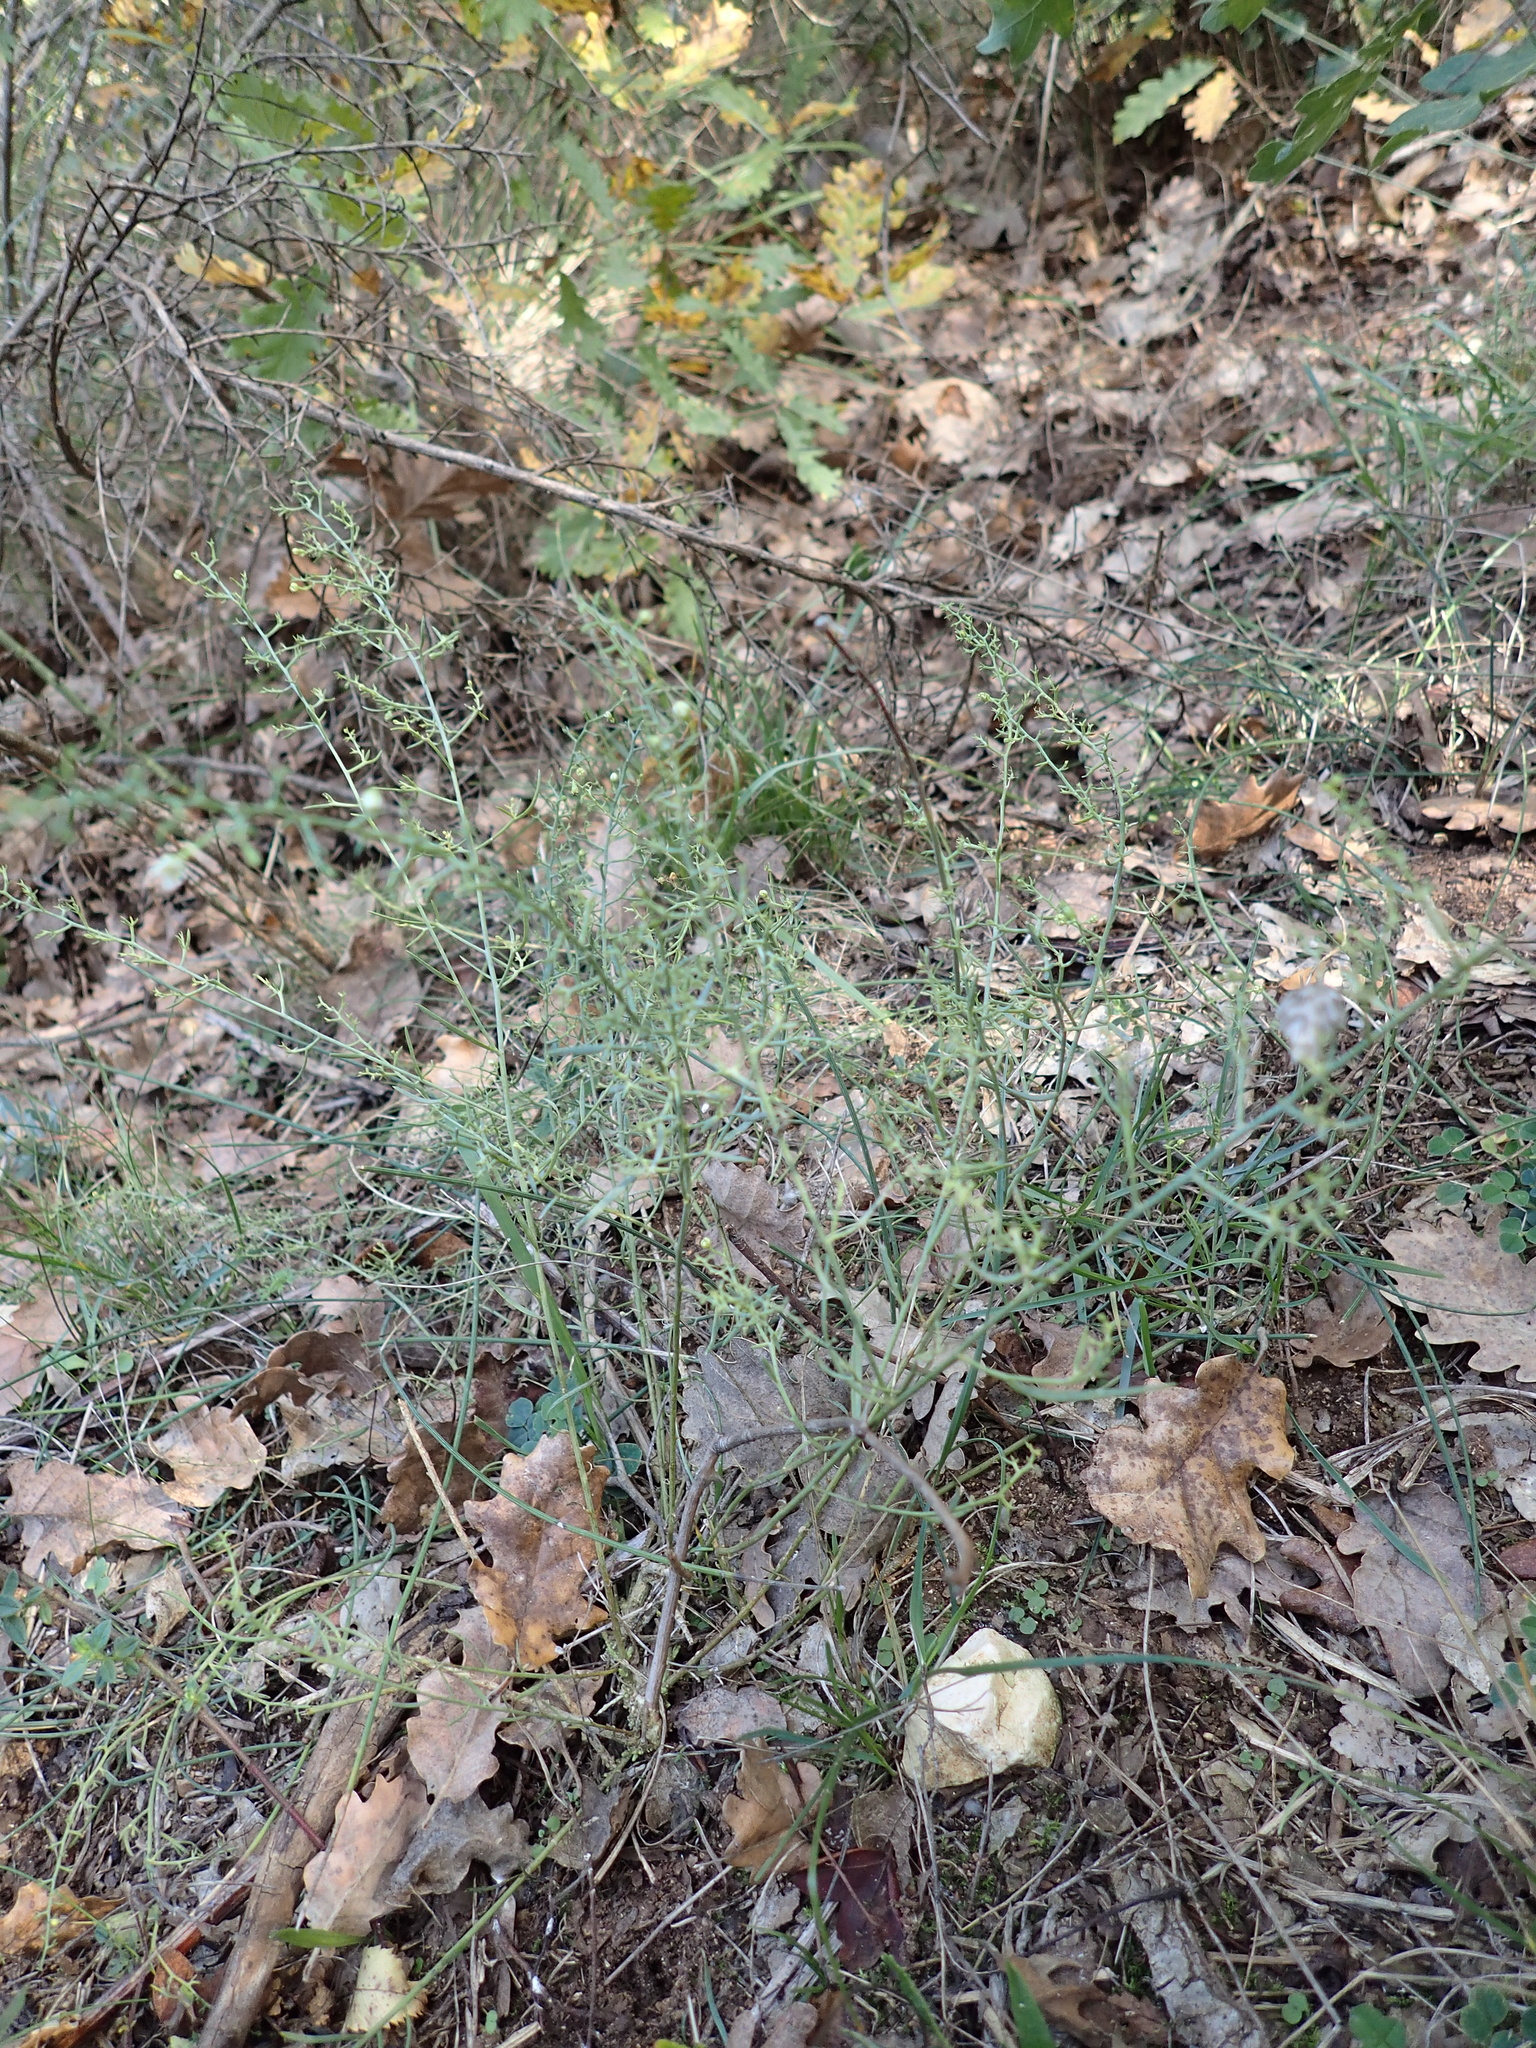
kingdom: Plantae
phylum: Tracheophyta
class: Magnoliopsida
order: Santalales
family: Thesiaceae
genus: Thesium
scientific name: Thesium divaricatum
